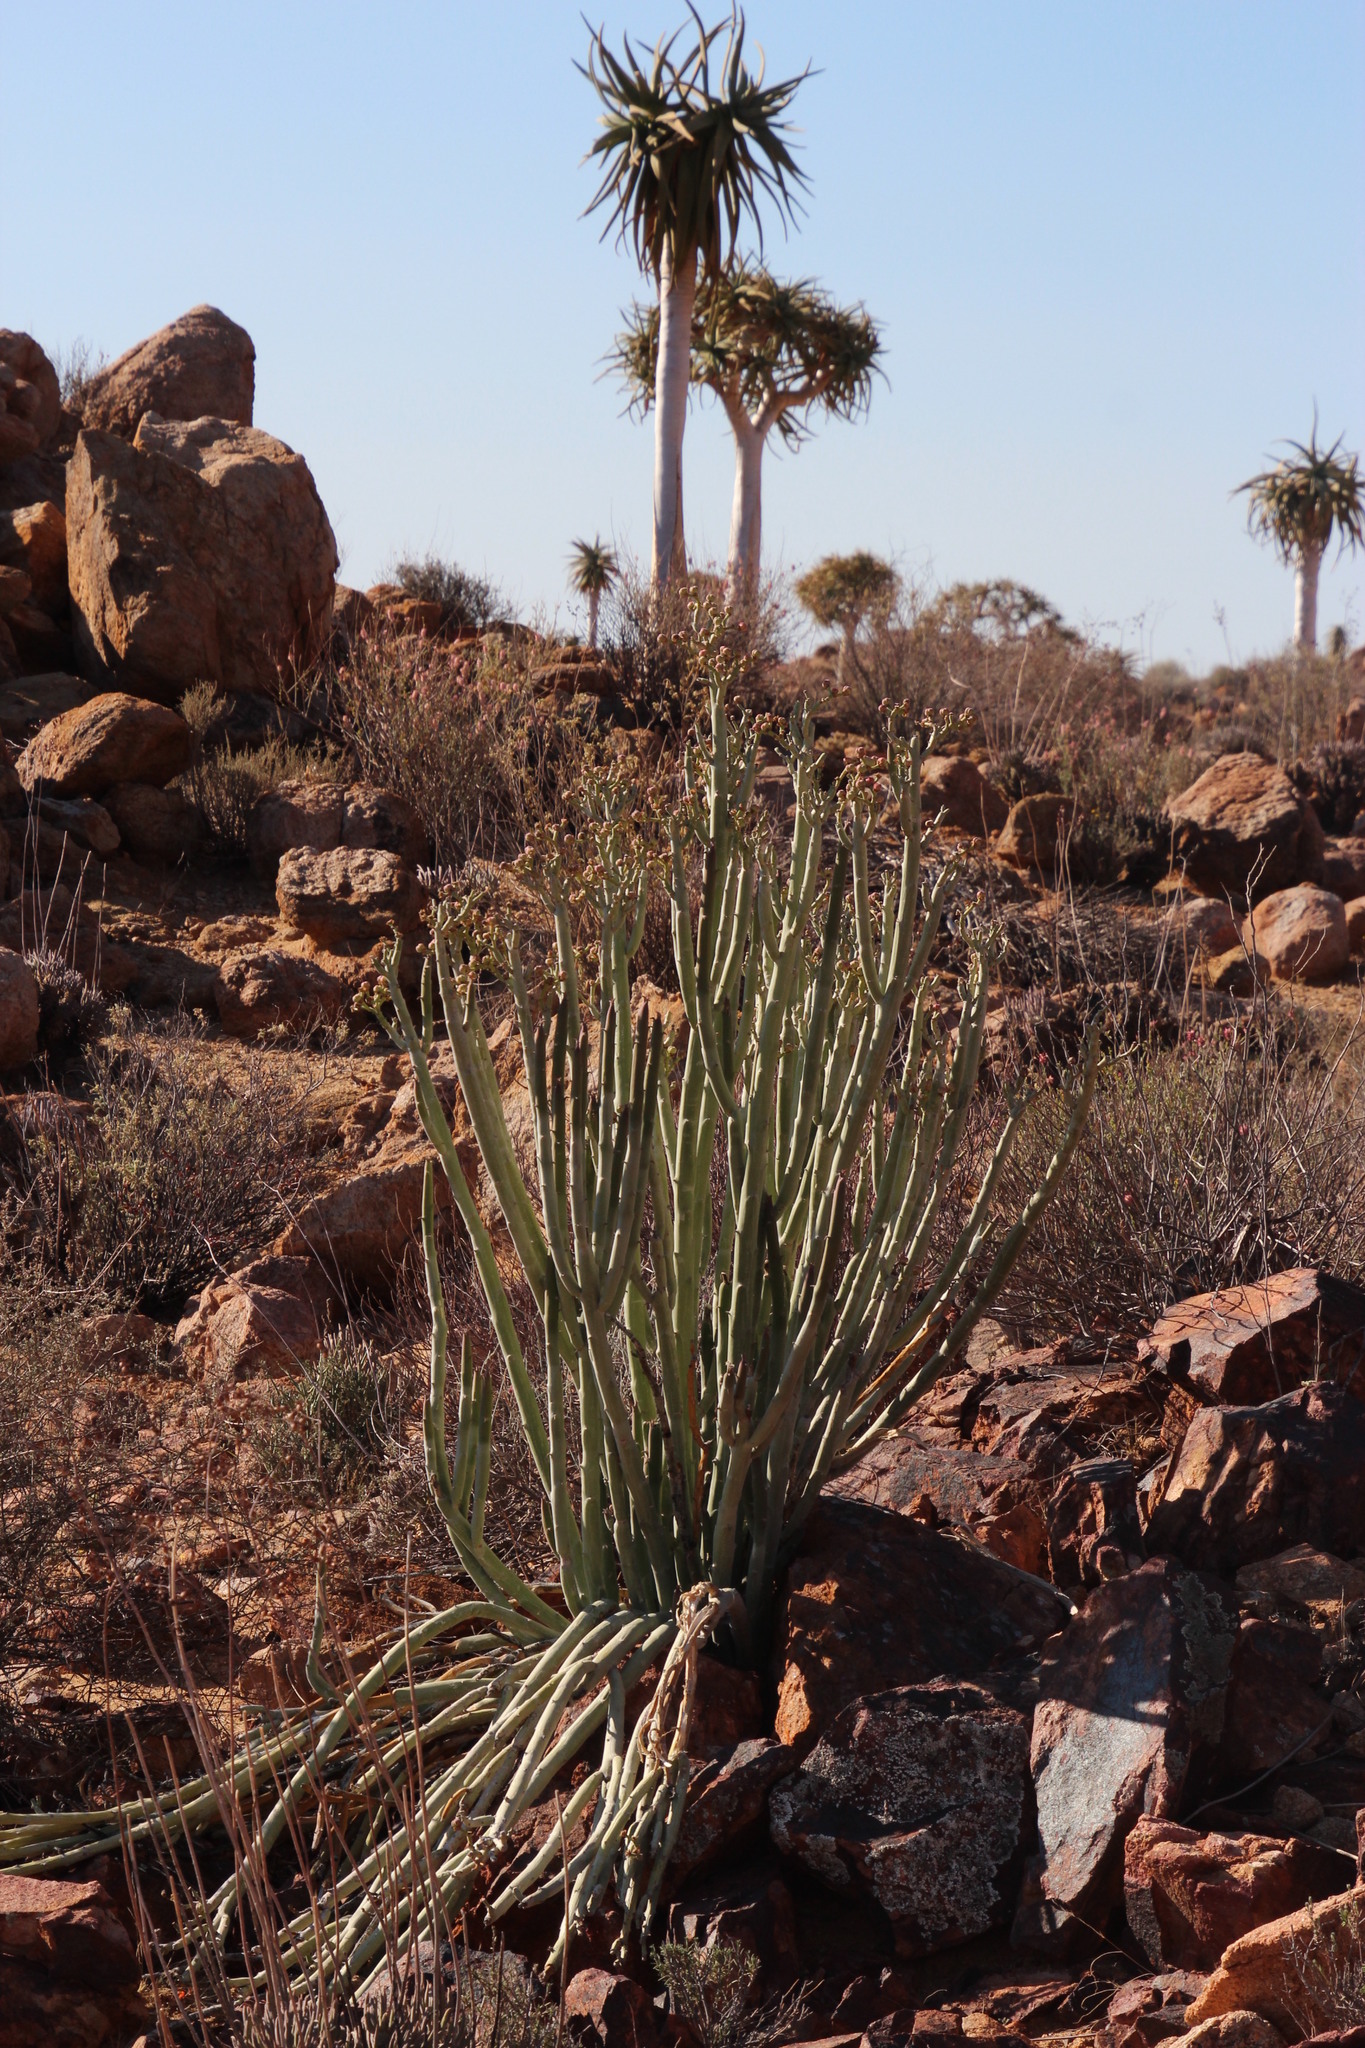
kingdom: Plantae
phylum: Tracheophyta
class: Magnoliopsida
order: Malpighiales
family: Euphorbiaceae
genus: Euphorbia
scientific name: Euphorbia dregeana
